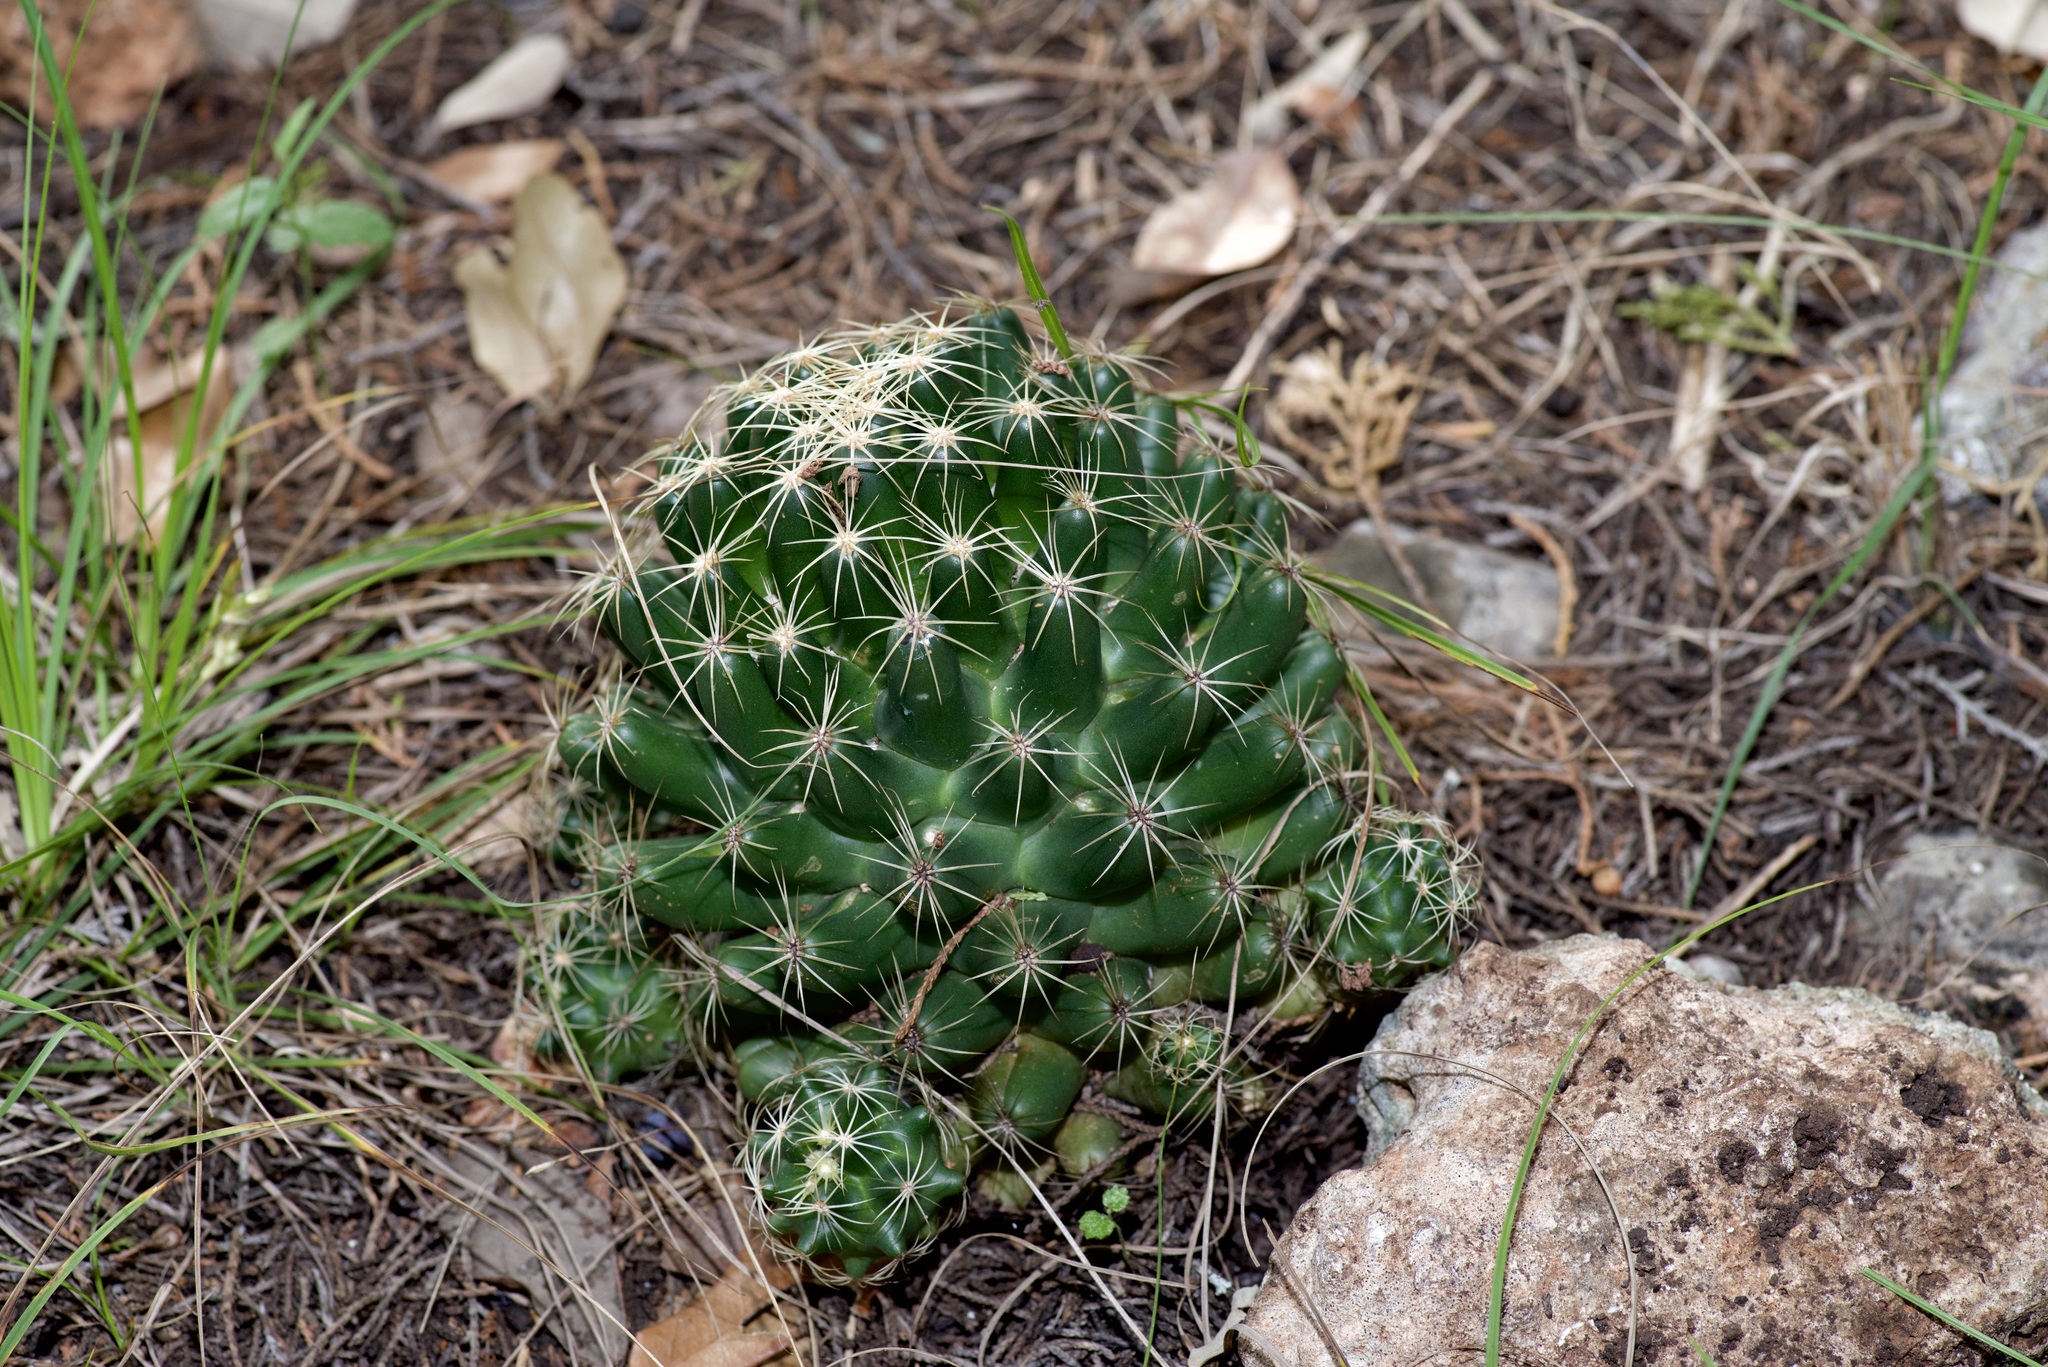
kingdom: Plantae
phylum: Tracheophyta
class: Magnoliopsida
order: Caryophyllales
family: Cactaceae
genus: Coryphantha
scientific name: Coryphantha sulcata
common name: Finger cactus
